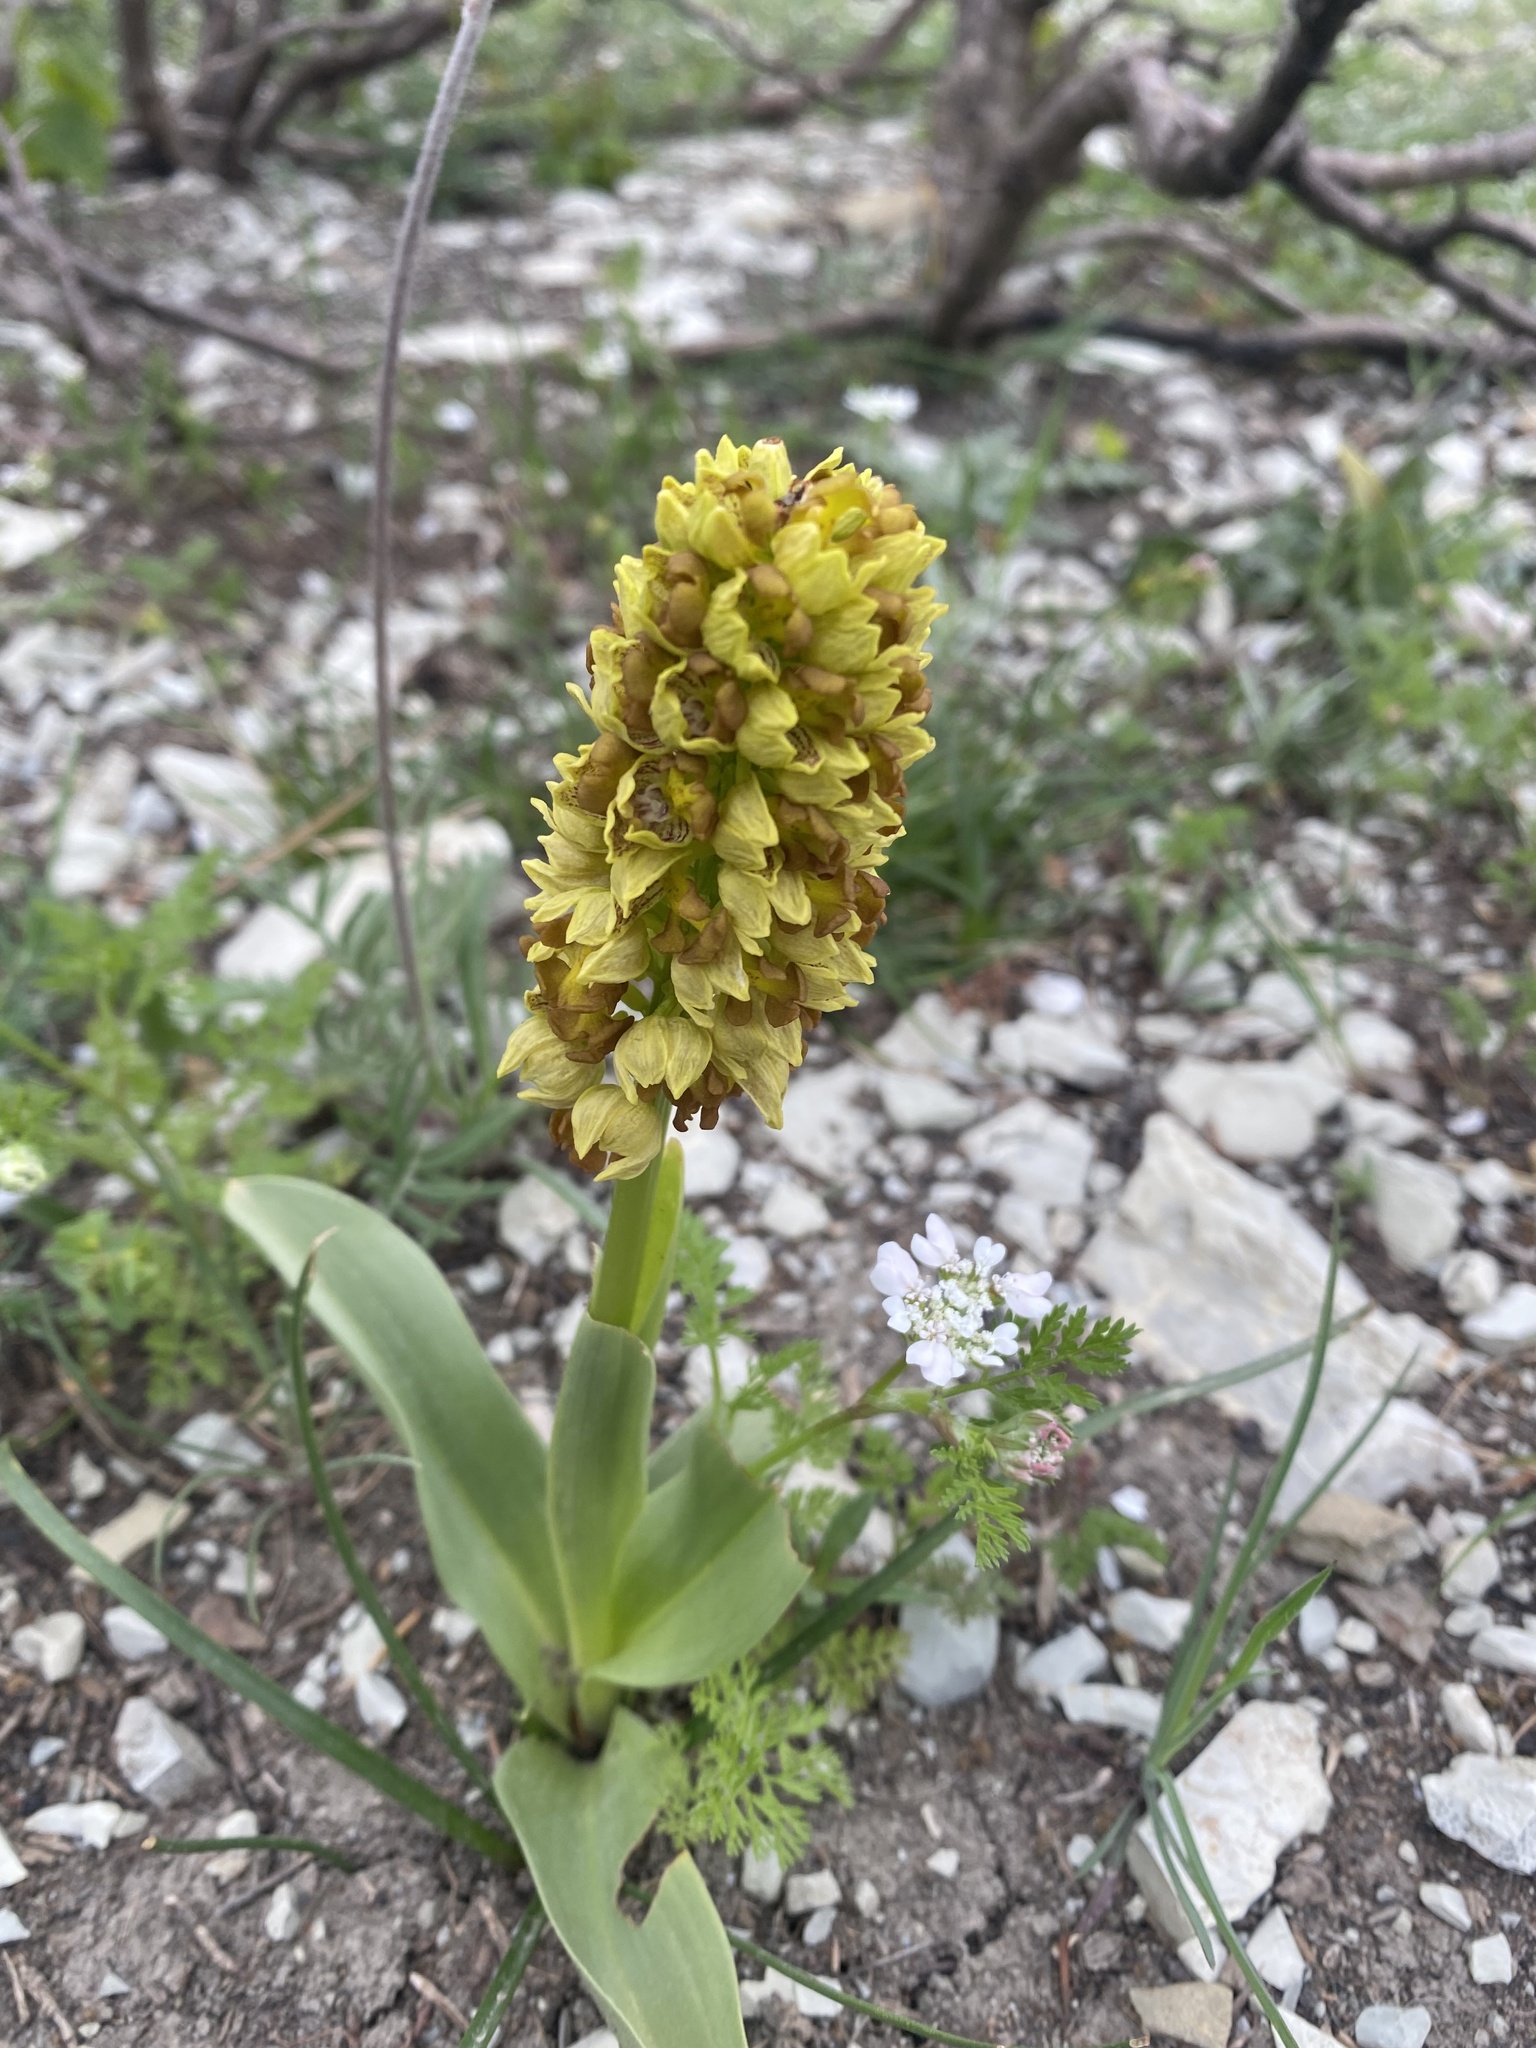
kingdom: Plantae
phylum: Tracheophyta
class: Liliopsida
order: Asparagales
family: Orchidaceae
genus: Orchis
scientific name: Orchis punctulata
